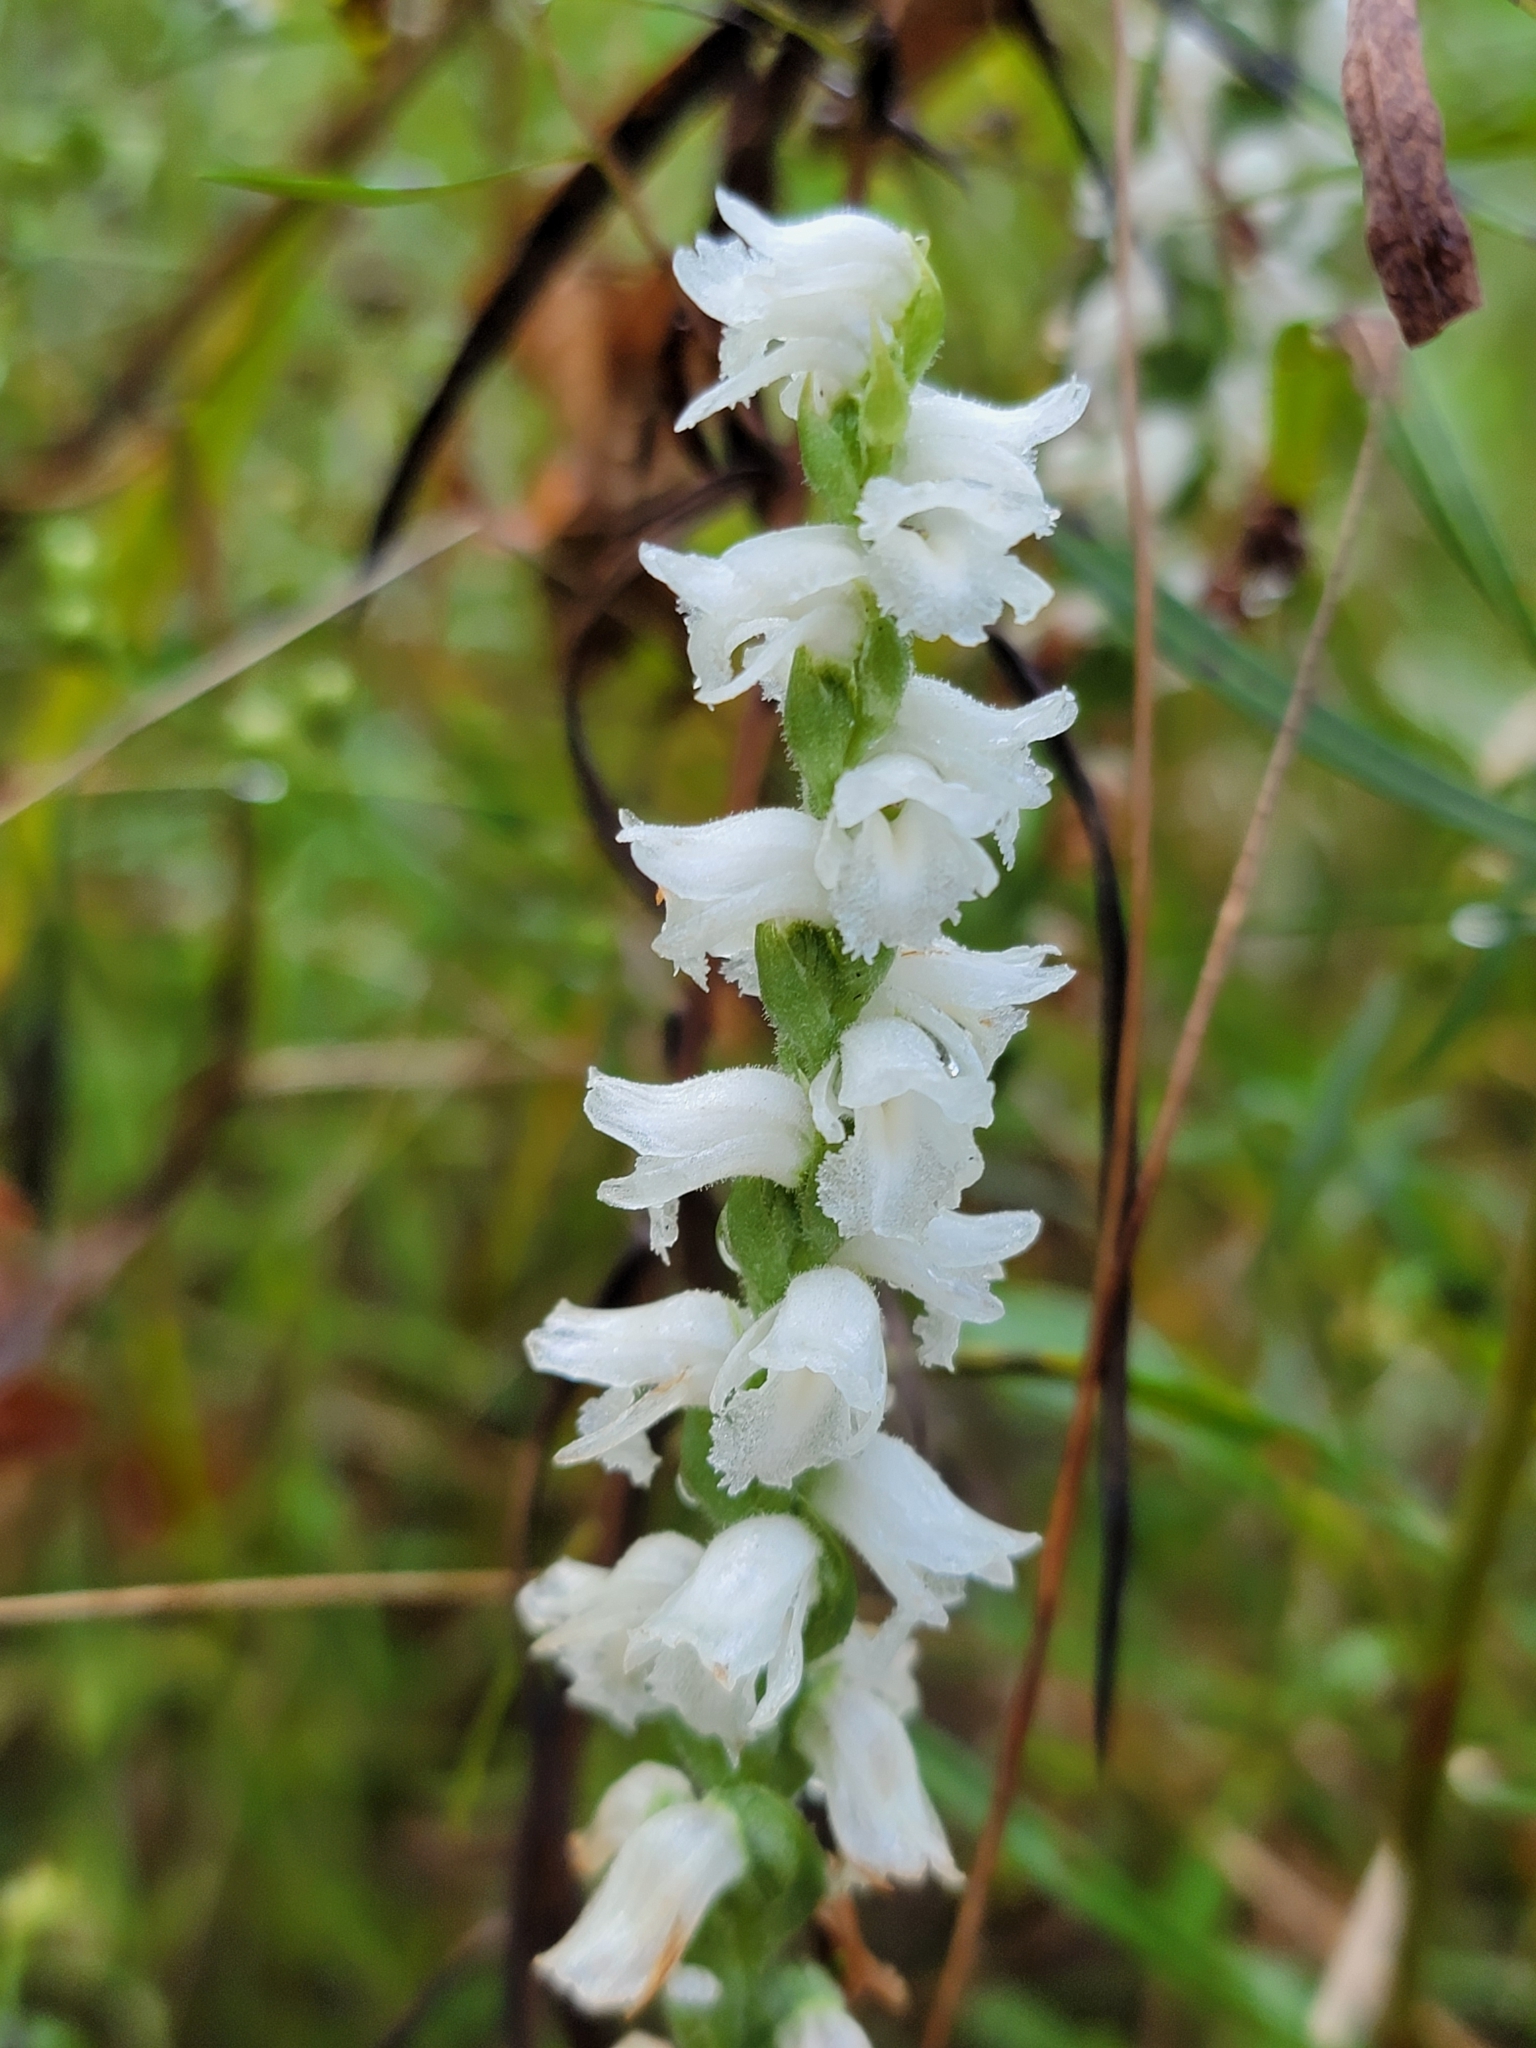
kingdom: Plantae
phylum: Tracheophyta
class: Liliopsida
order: Asparagales
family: Orchidaceae
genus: Spiranthes
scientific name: Spiranthes arcisepala
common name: Appalachian ladies'-tresses
